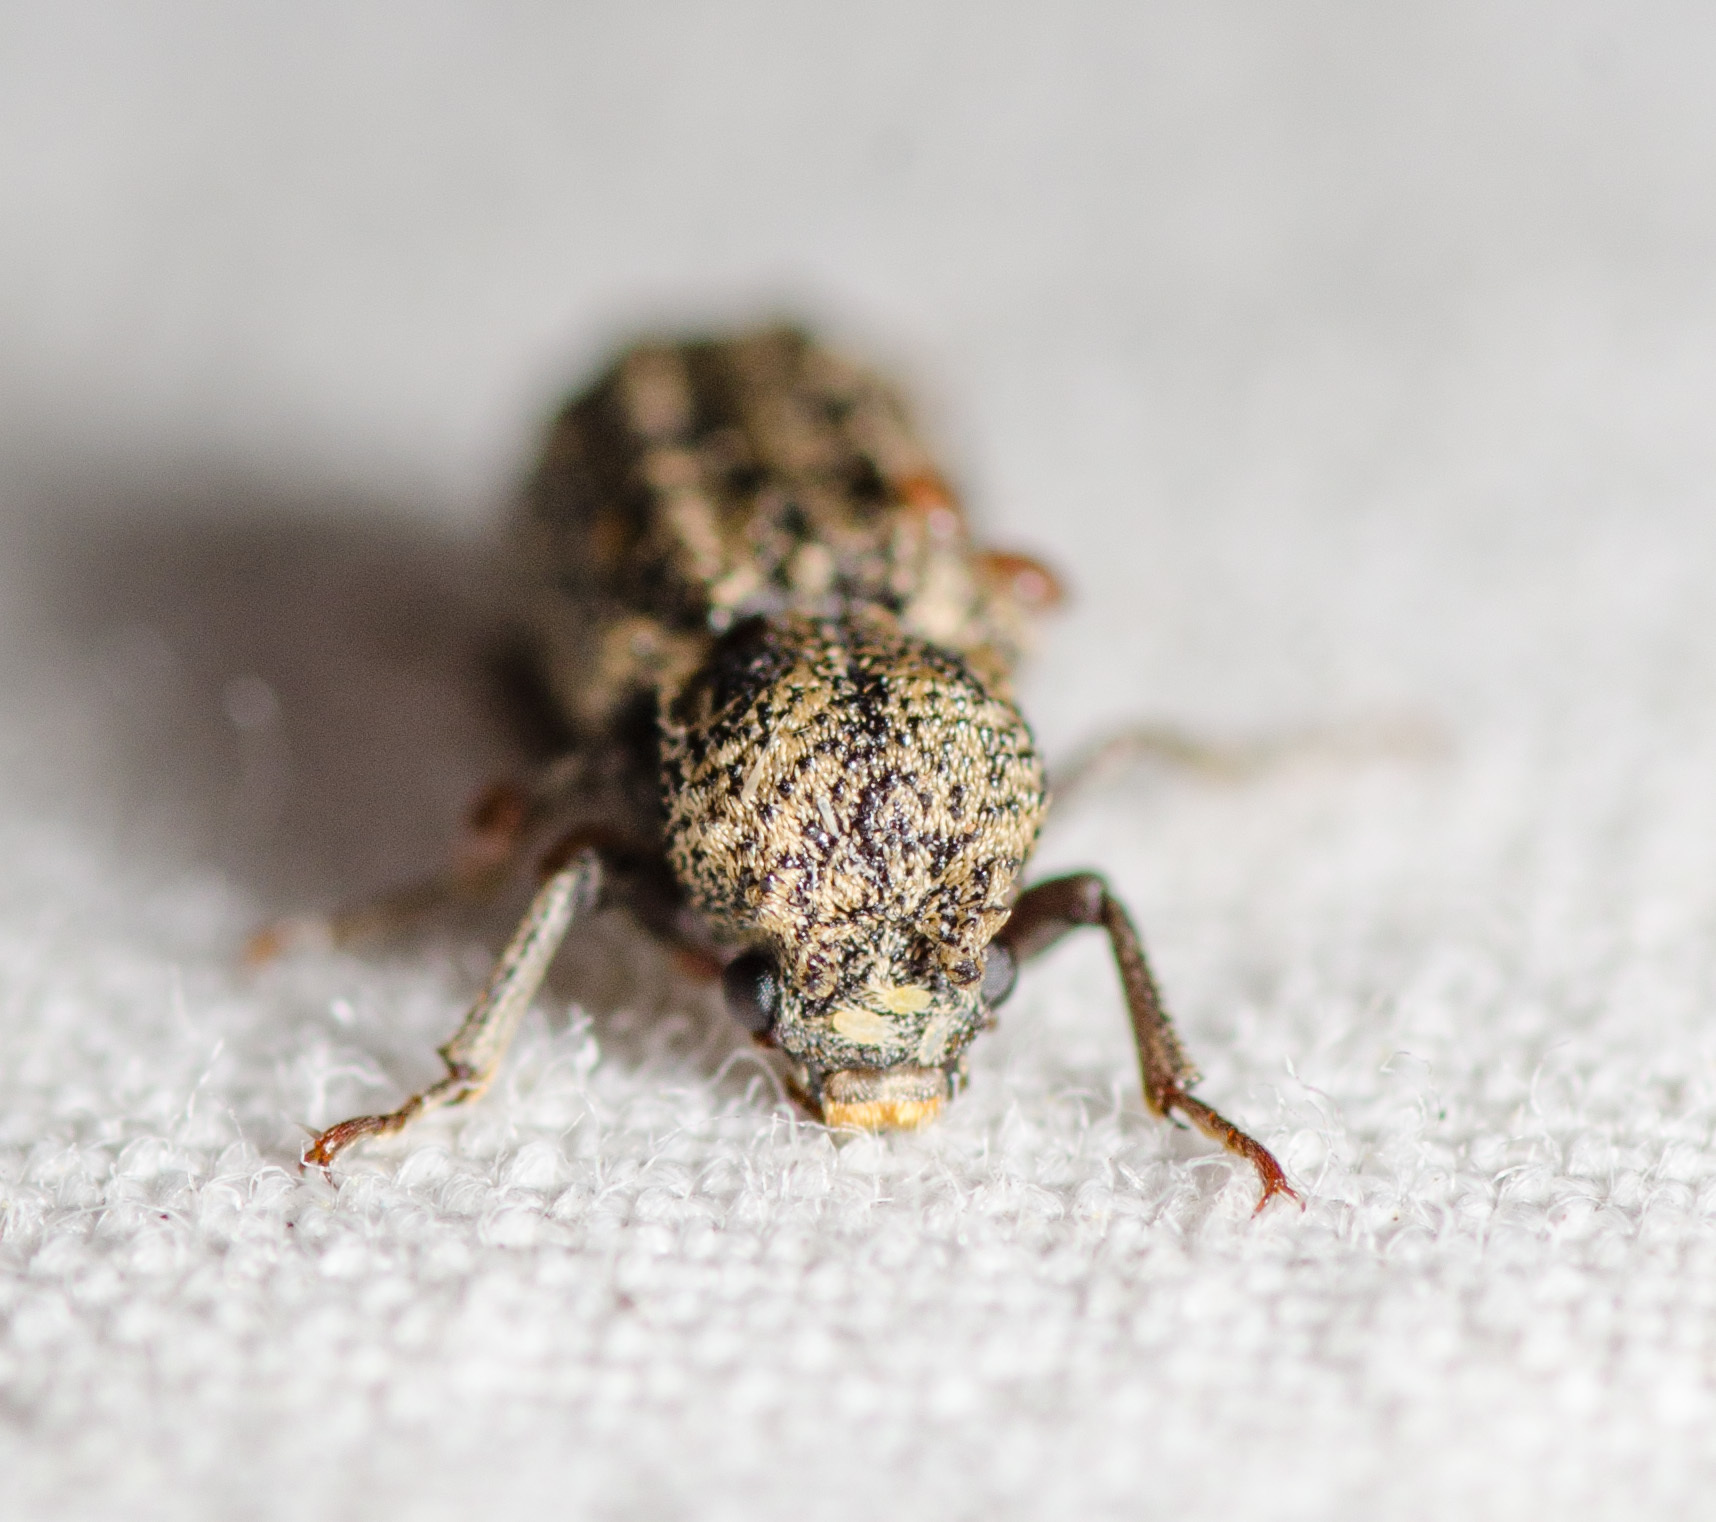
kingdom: Animalia
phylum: Arthropoda
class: Insecta
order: Coleoptera
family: Bostrichidae
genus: Lichenophanes
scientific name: Lichenophanes bicornis
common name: Two-horned powder-post beetle
